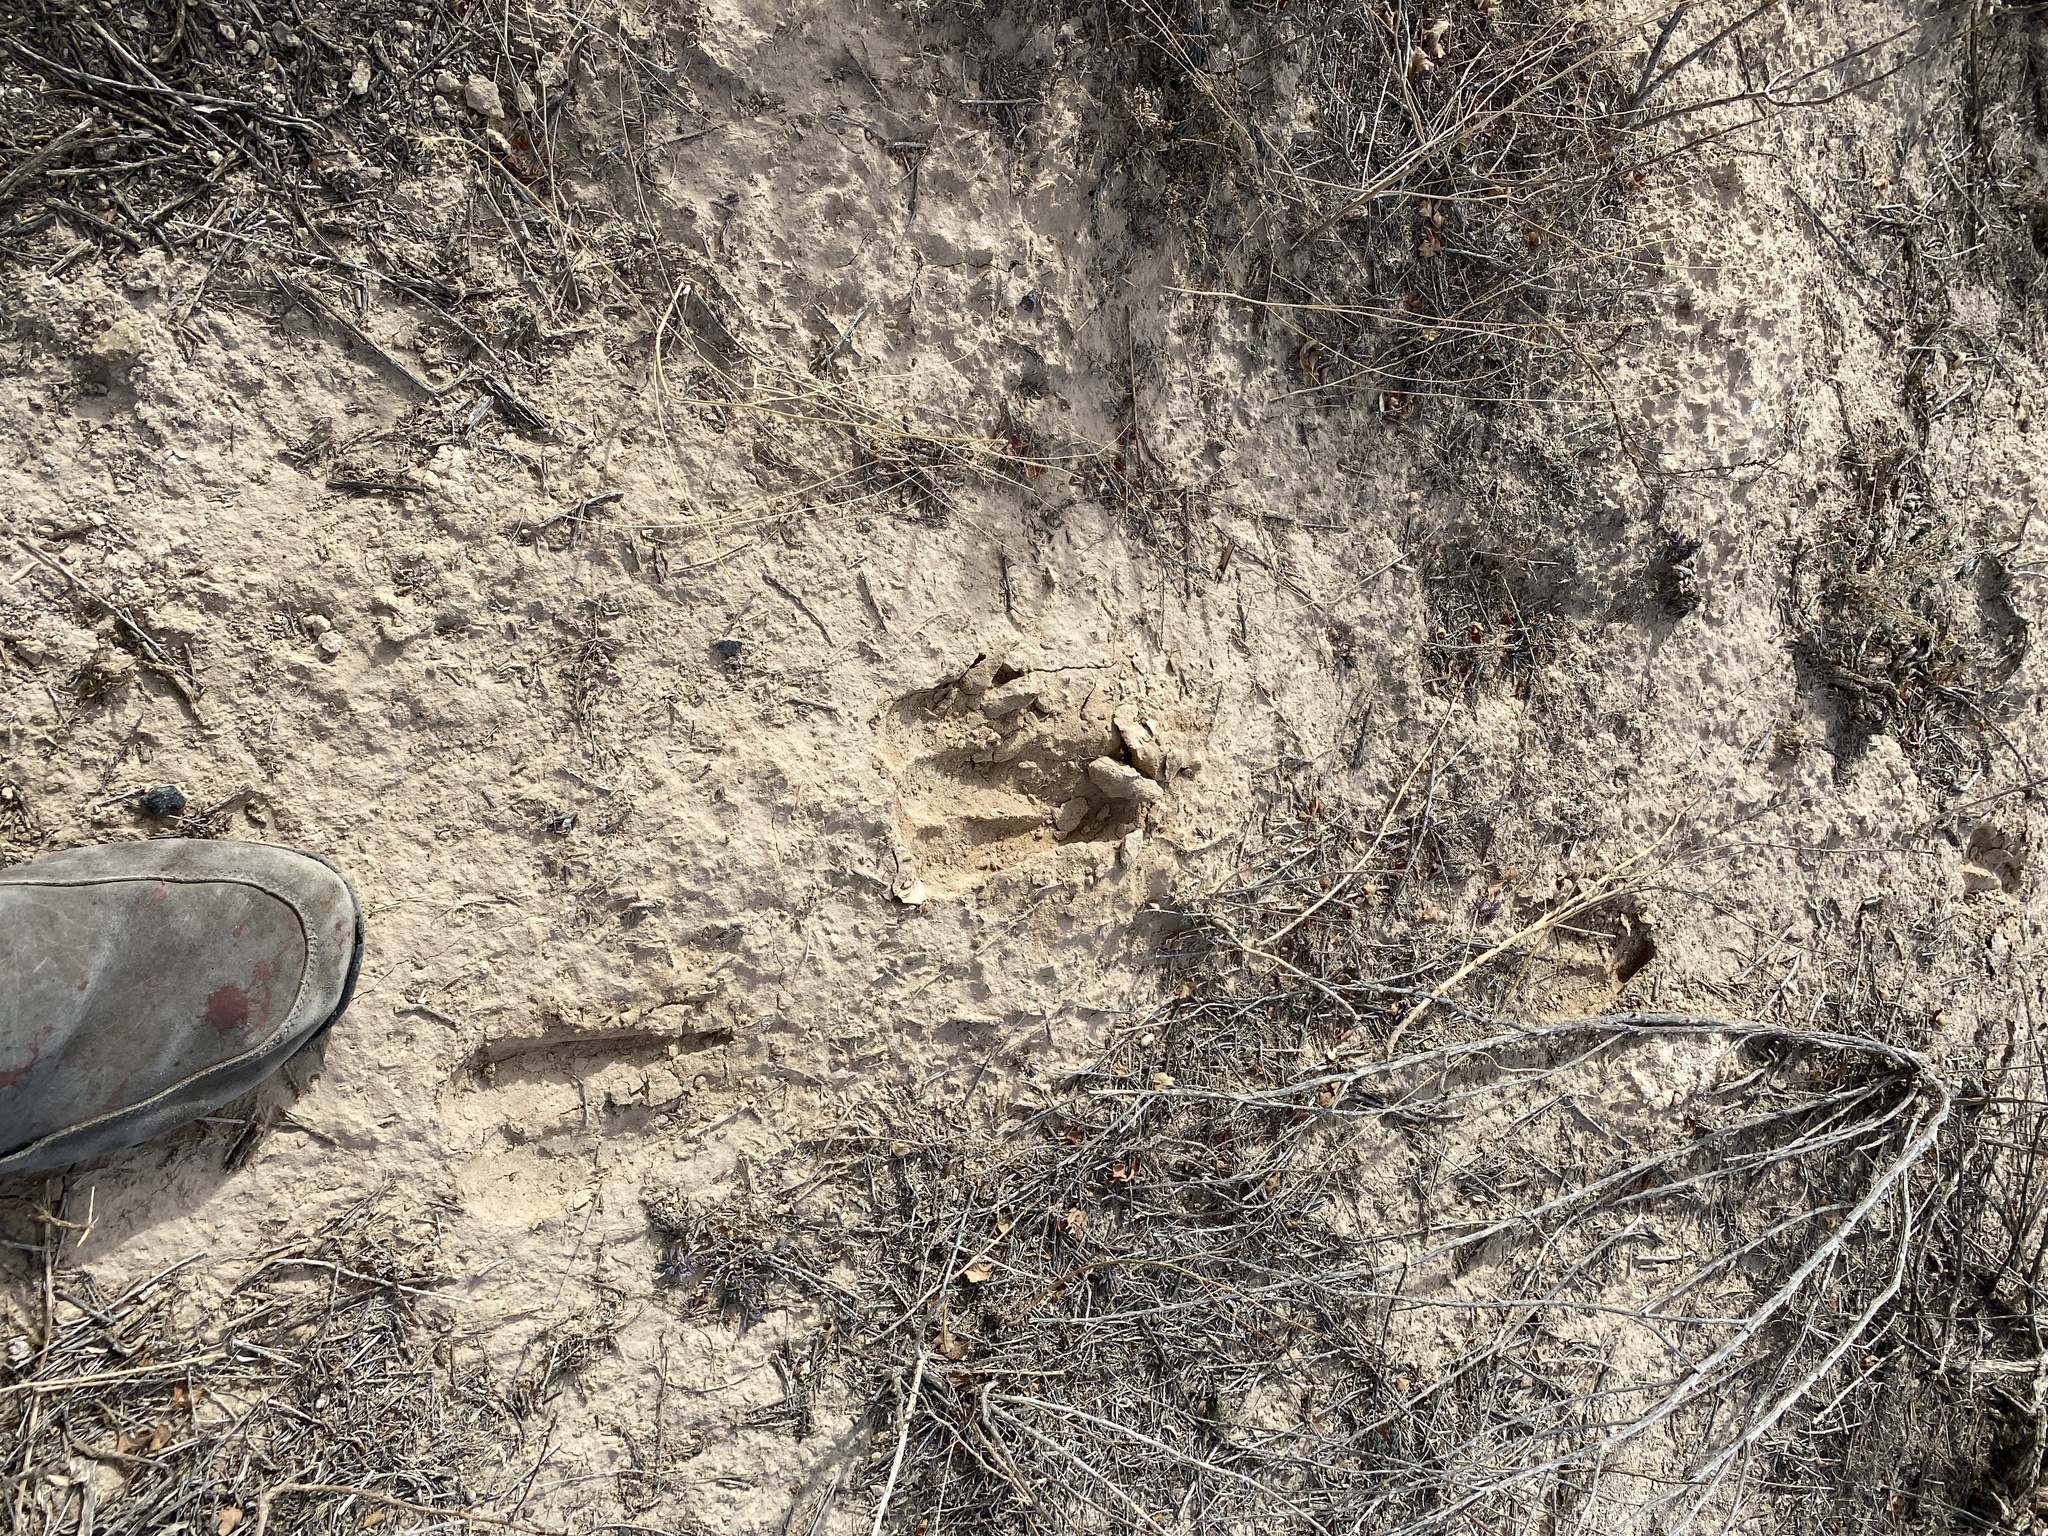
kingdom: Animalia
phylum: Chordata
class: Mammalia
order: Artiodactyla
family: Bovidae
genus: Oryx
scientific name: Oryx gazella
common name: Gemsbok
